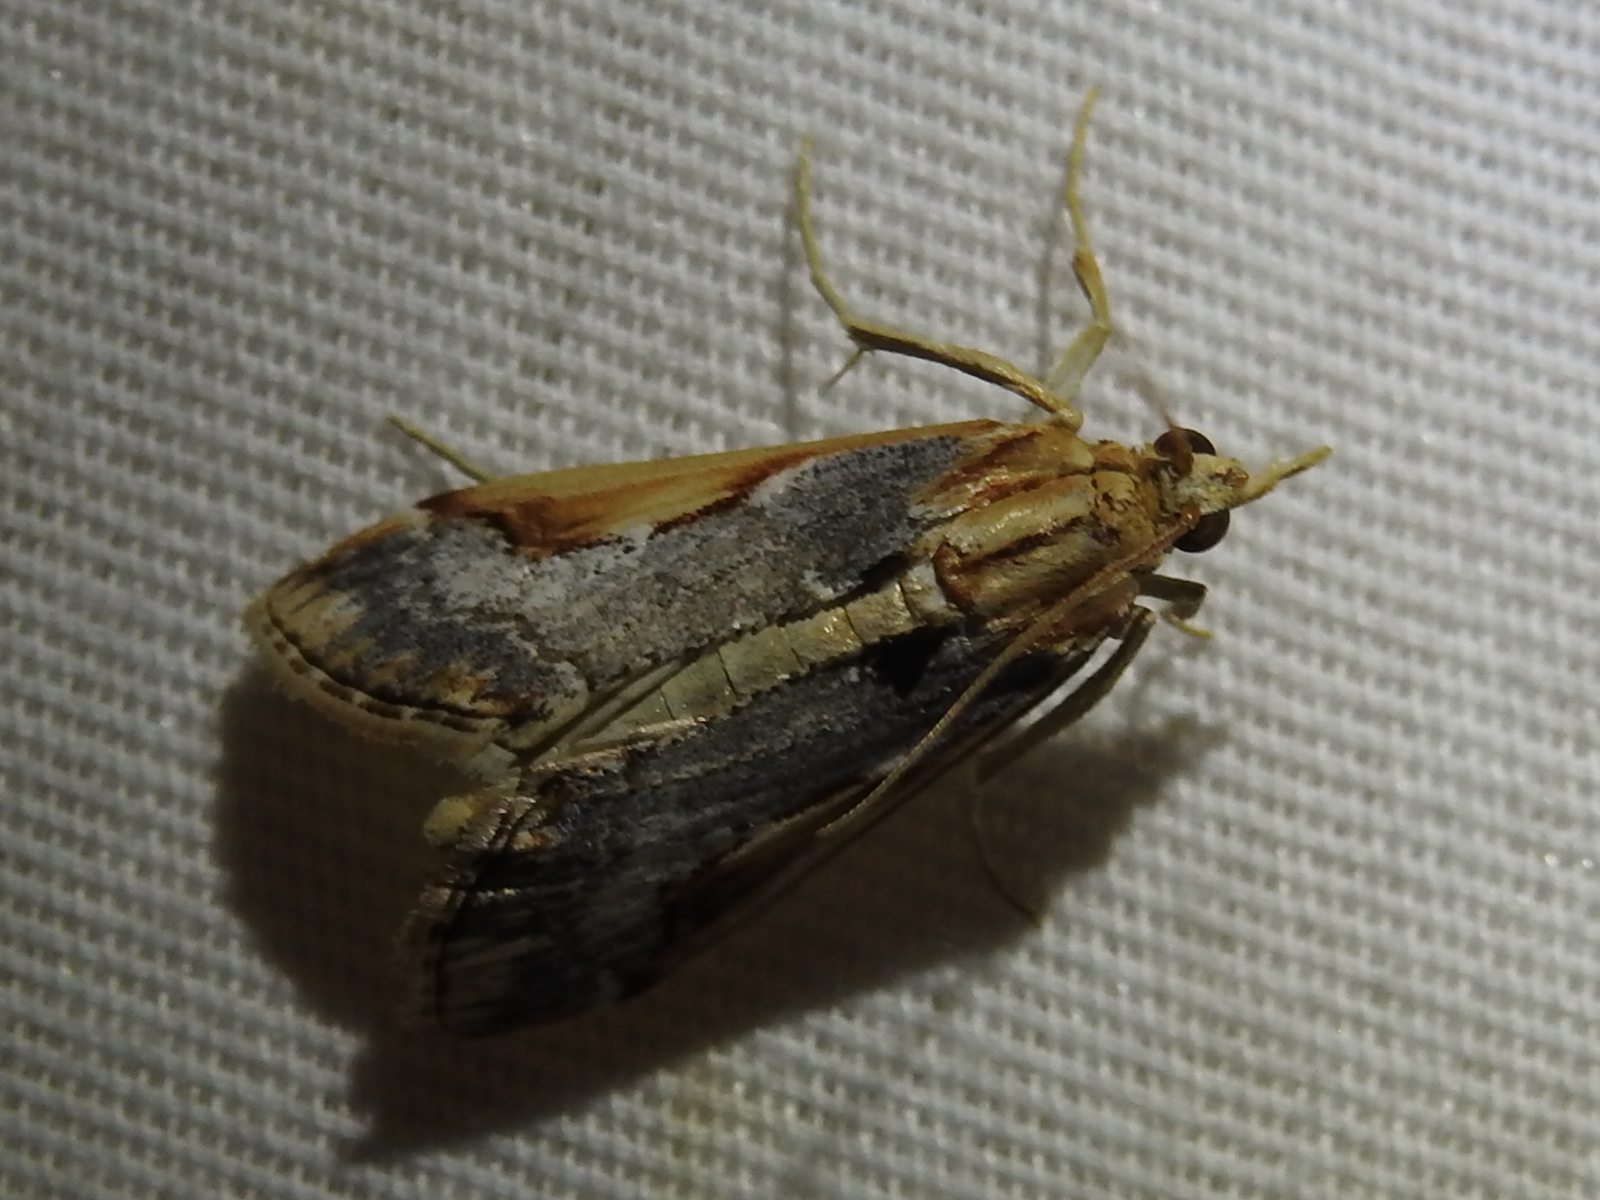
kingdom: Animalia
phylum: Arthropoda
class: Insecta
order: Lepidoptera
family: Crambidae
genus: Loxostege
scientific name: Loxostege albiceralis
